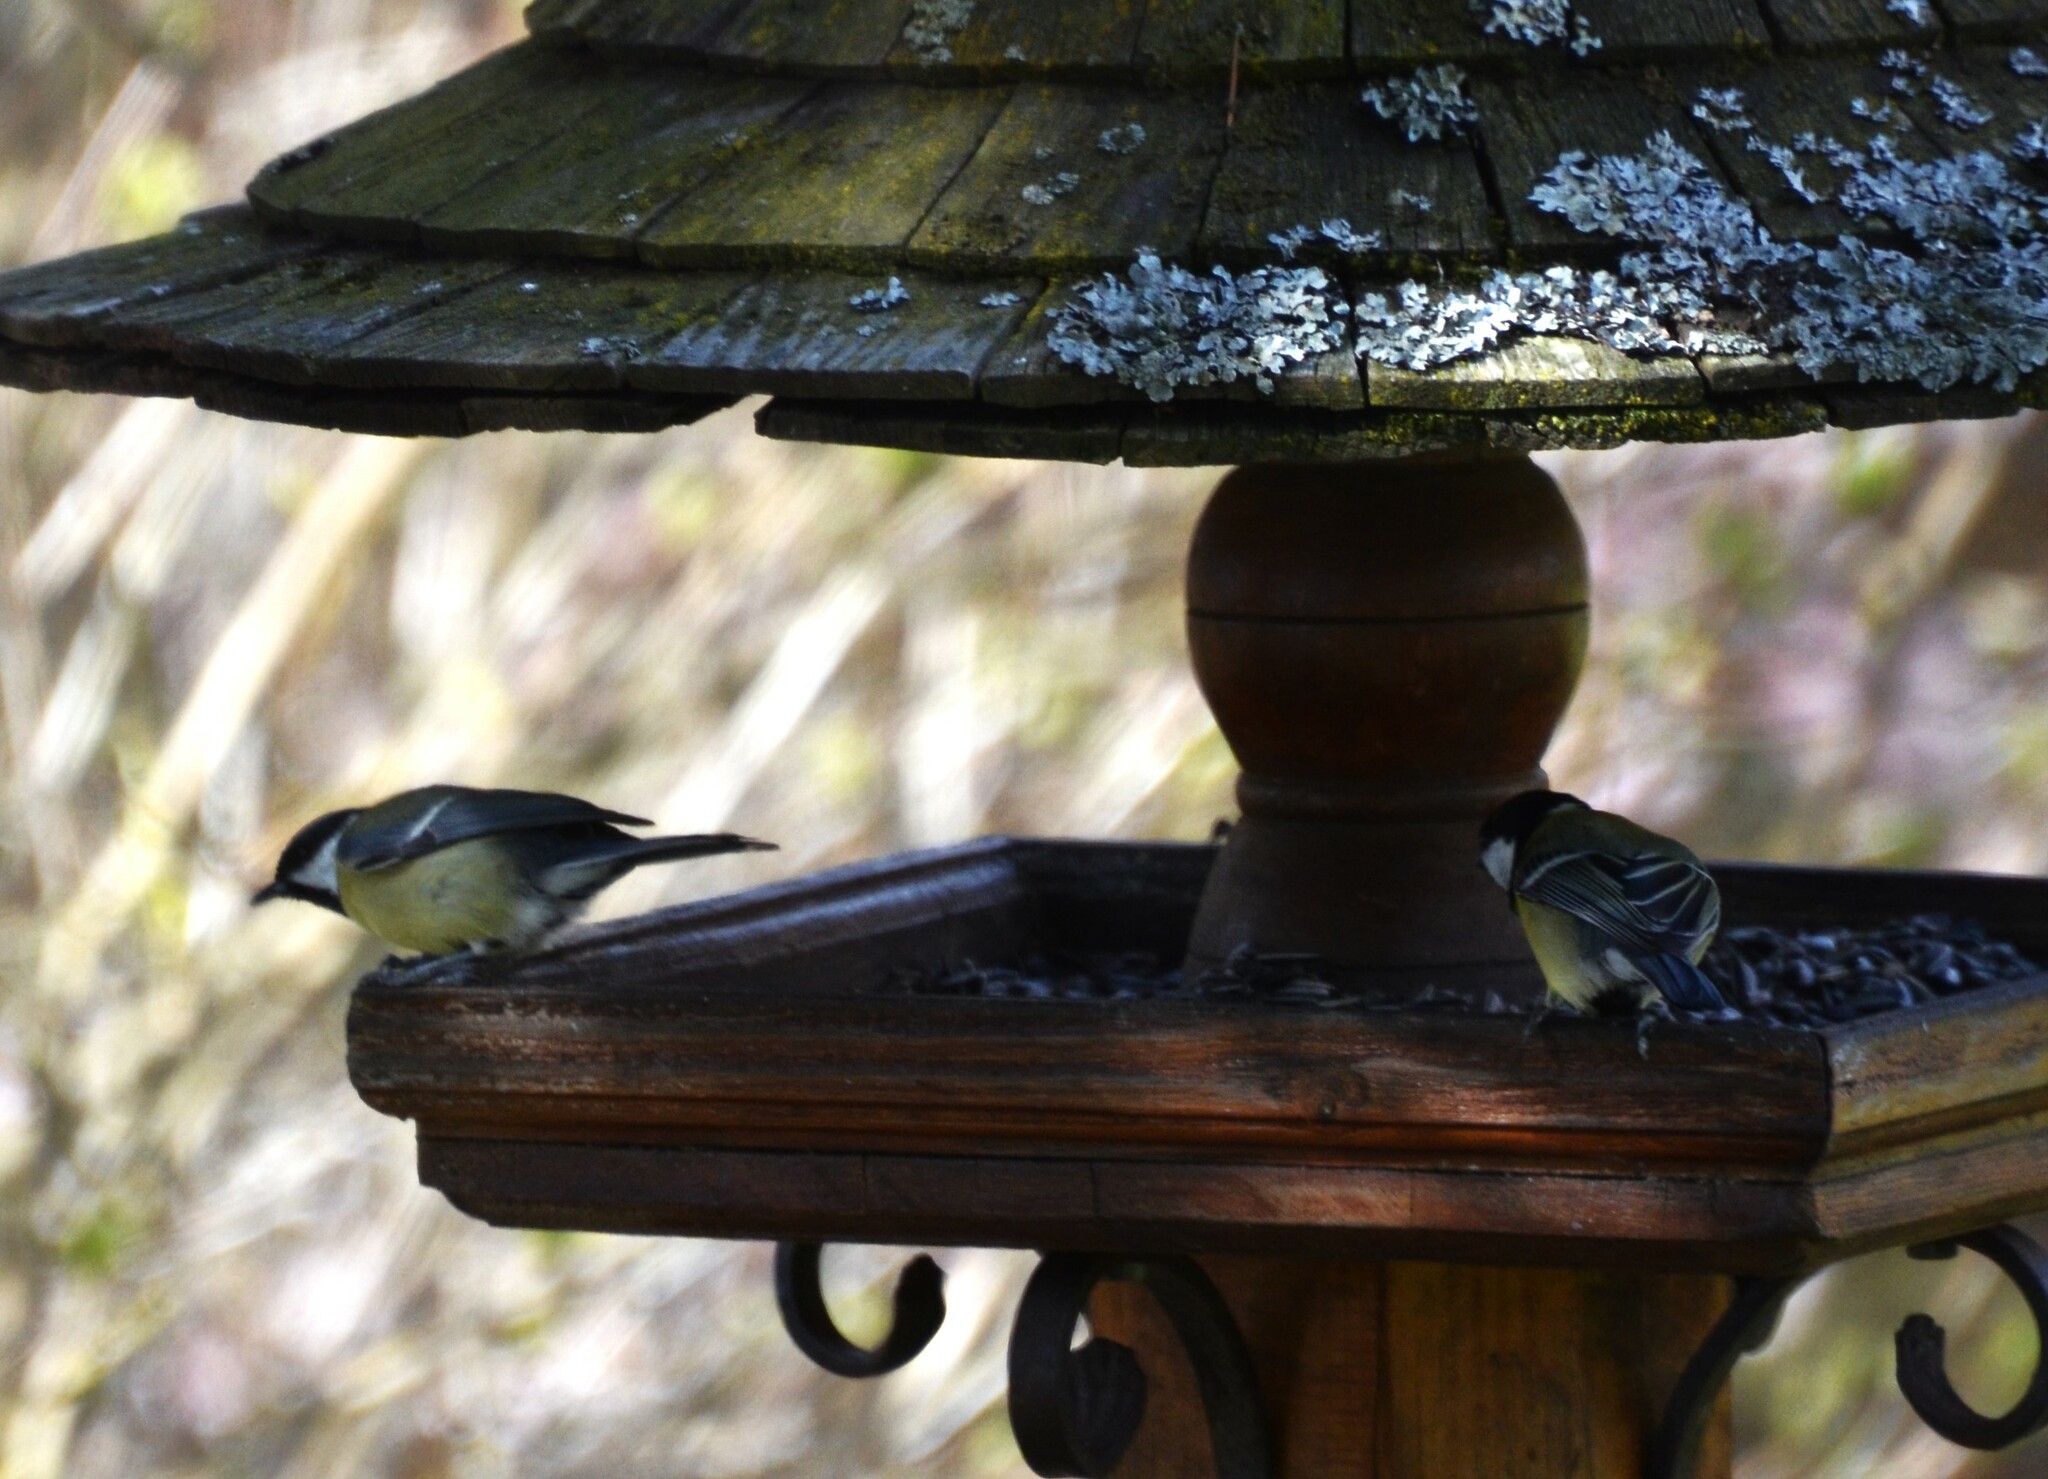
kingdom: Animalia
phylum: Chordata
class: Aves
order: Passeriformes
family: Paridae
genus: Parus
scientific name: Parus major
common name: Great tit
